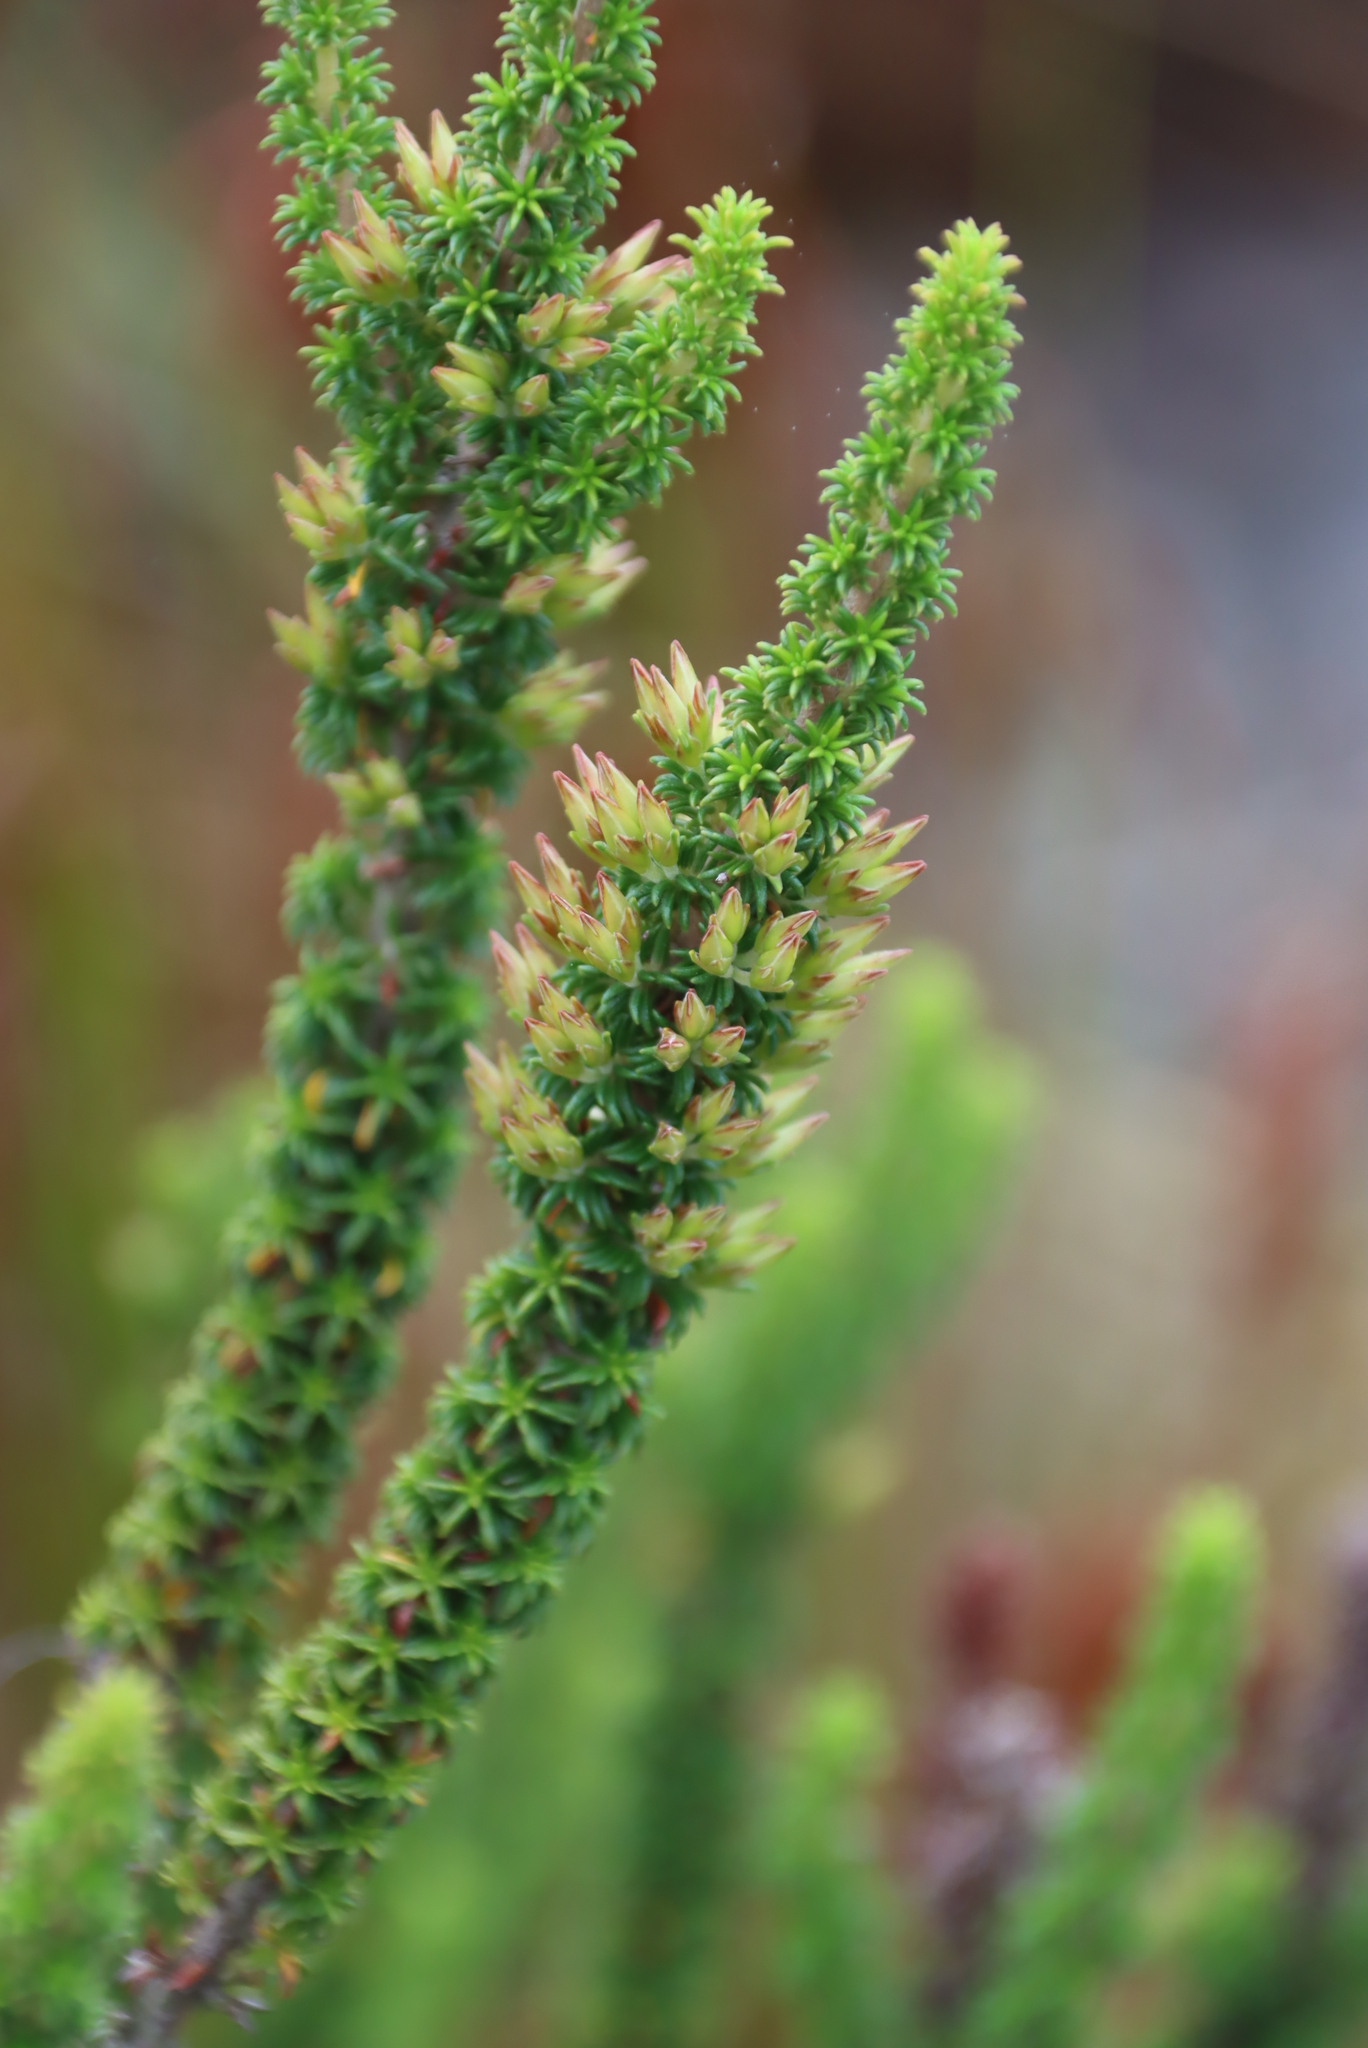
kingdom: Plantae
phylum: Tracheophyta
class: Magnoliopsida
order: Ericales
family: Ericaceae
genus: Erica
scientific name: Erica coccinea
